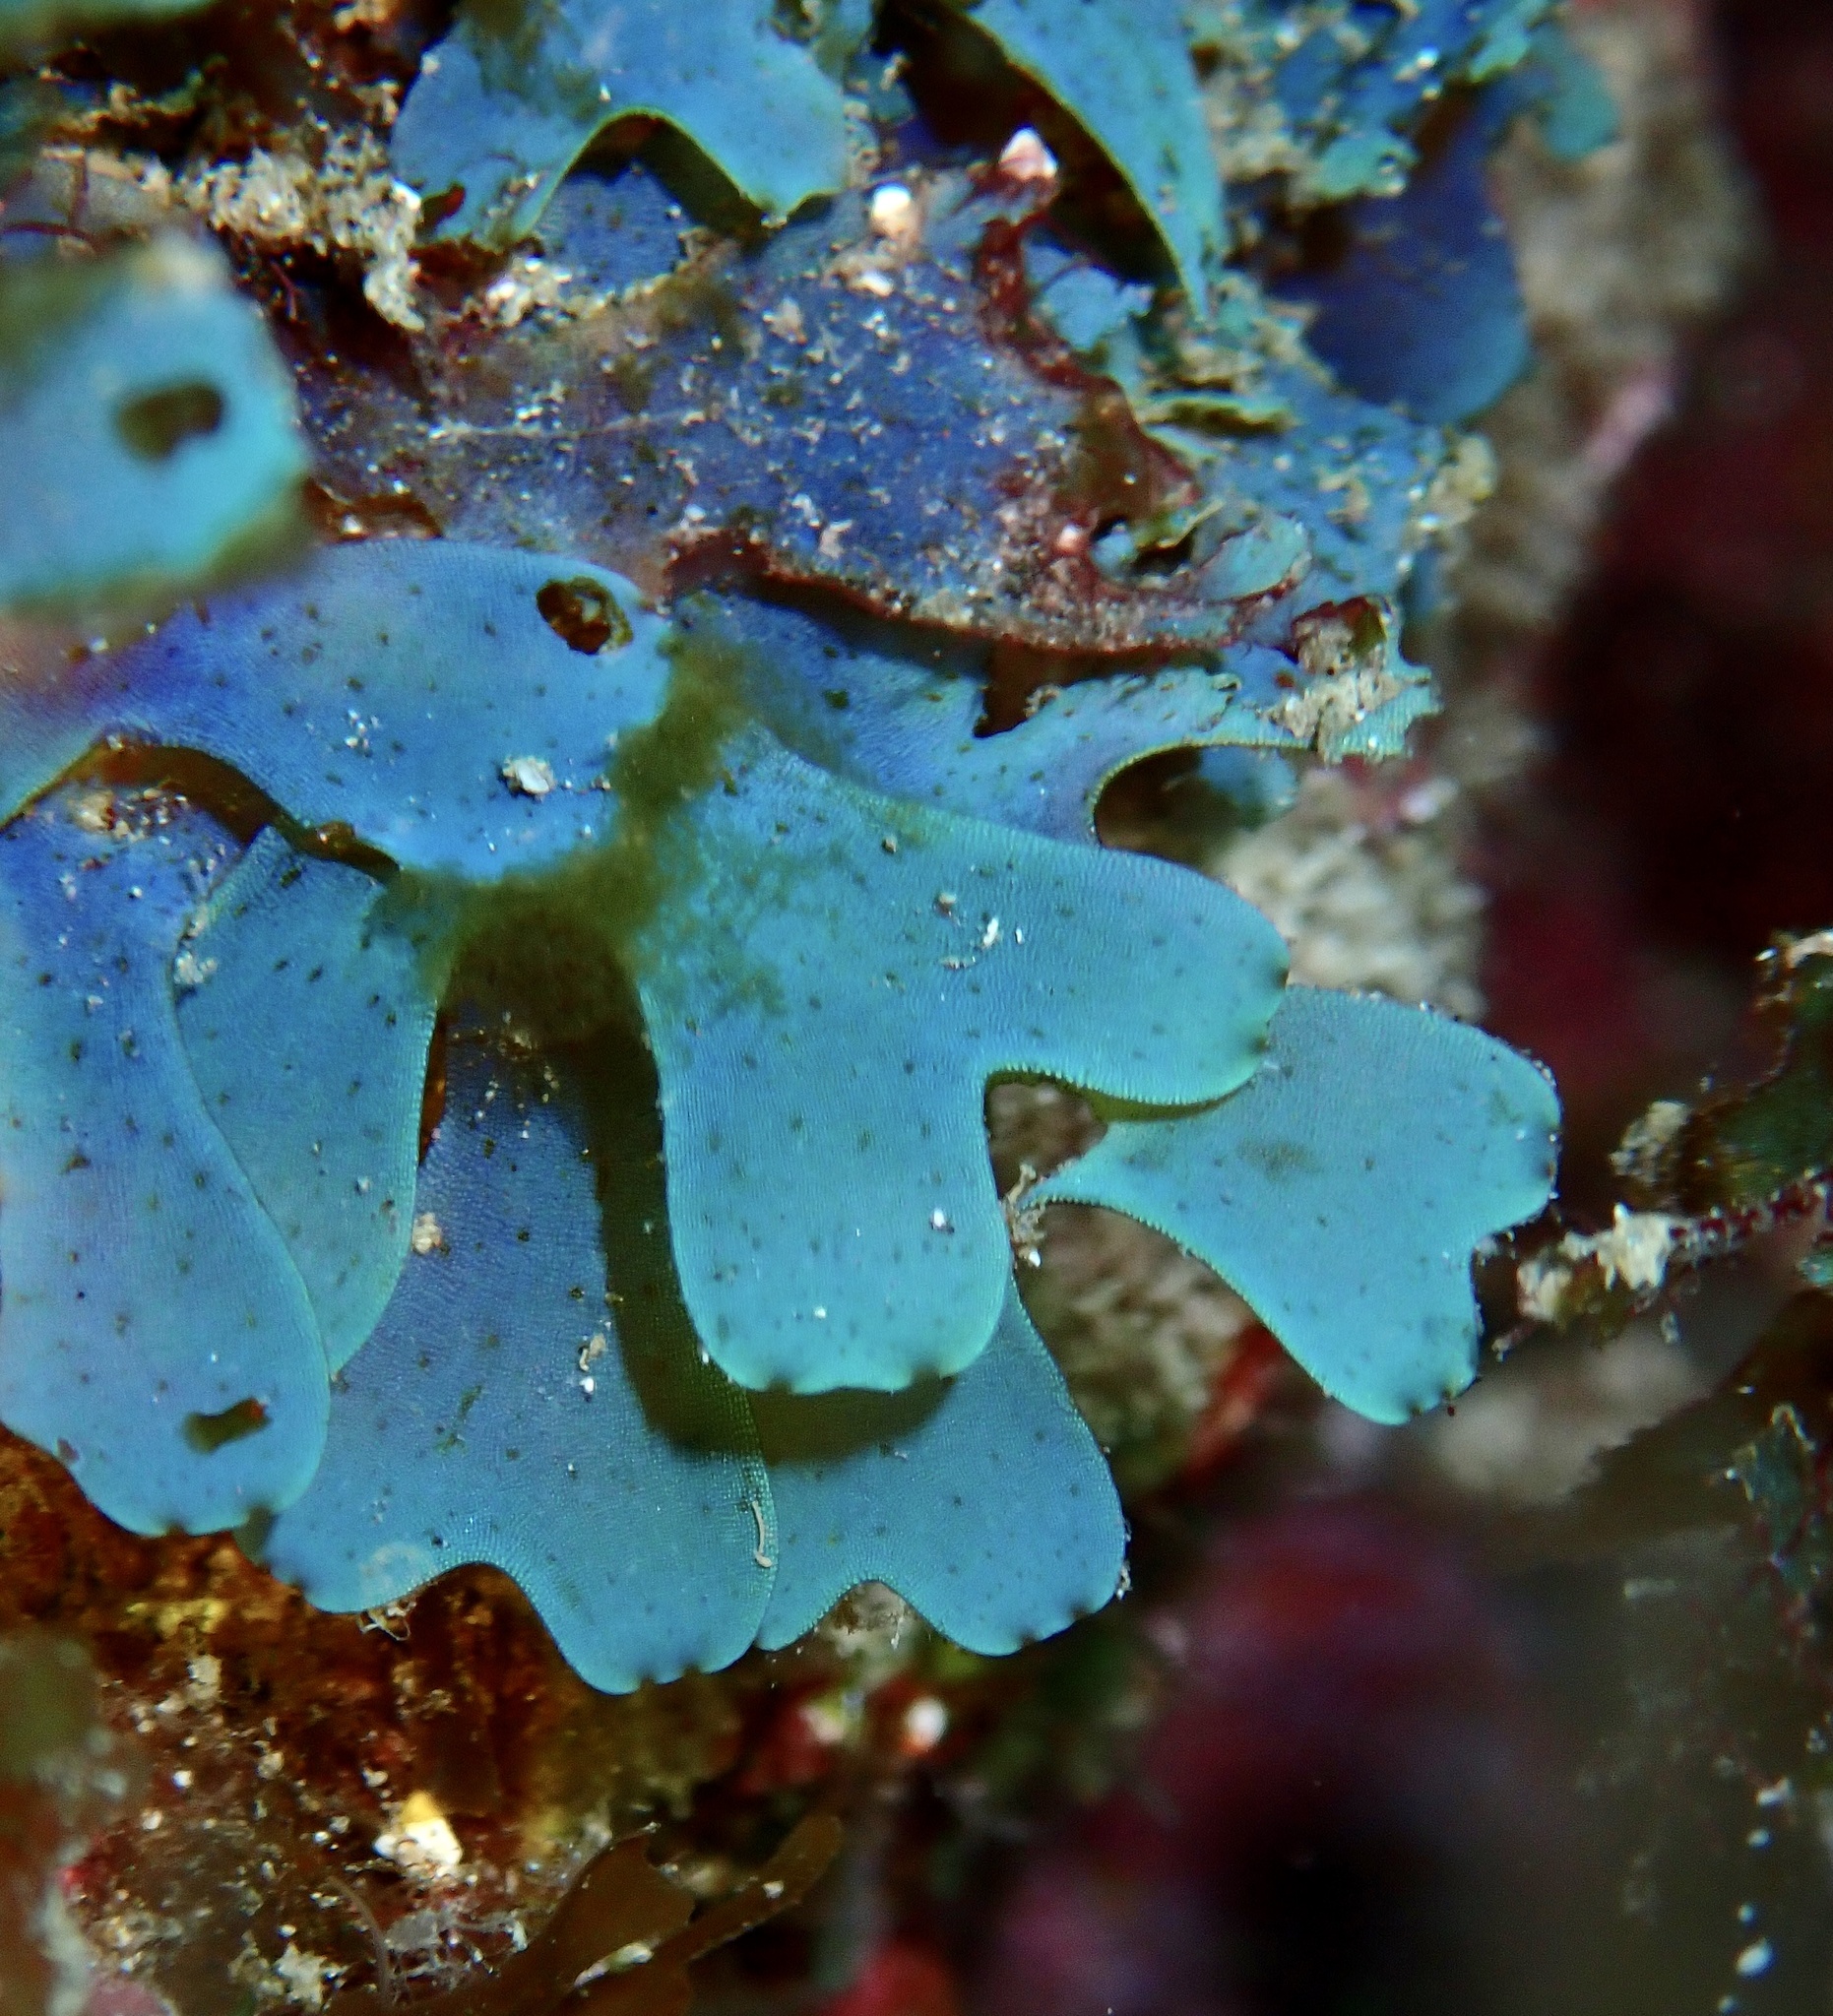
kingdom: Chromista
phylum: Ochrophyta
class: Phaeophyceae
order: Dictyotales
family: Dictyotaceae
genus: Dictyota
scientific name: Dictyota cyanoloma
